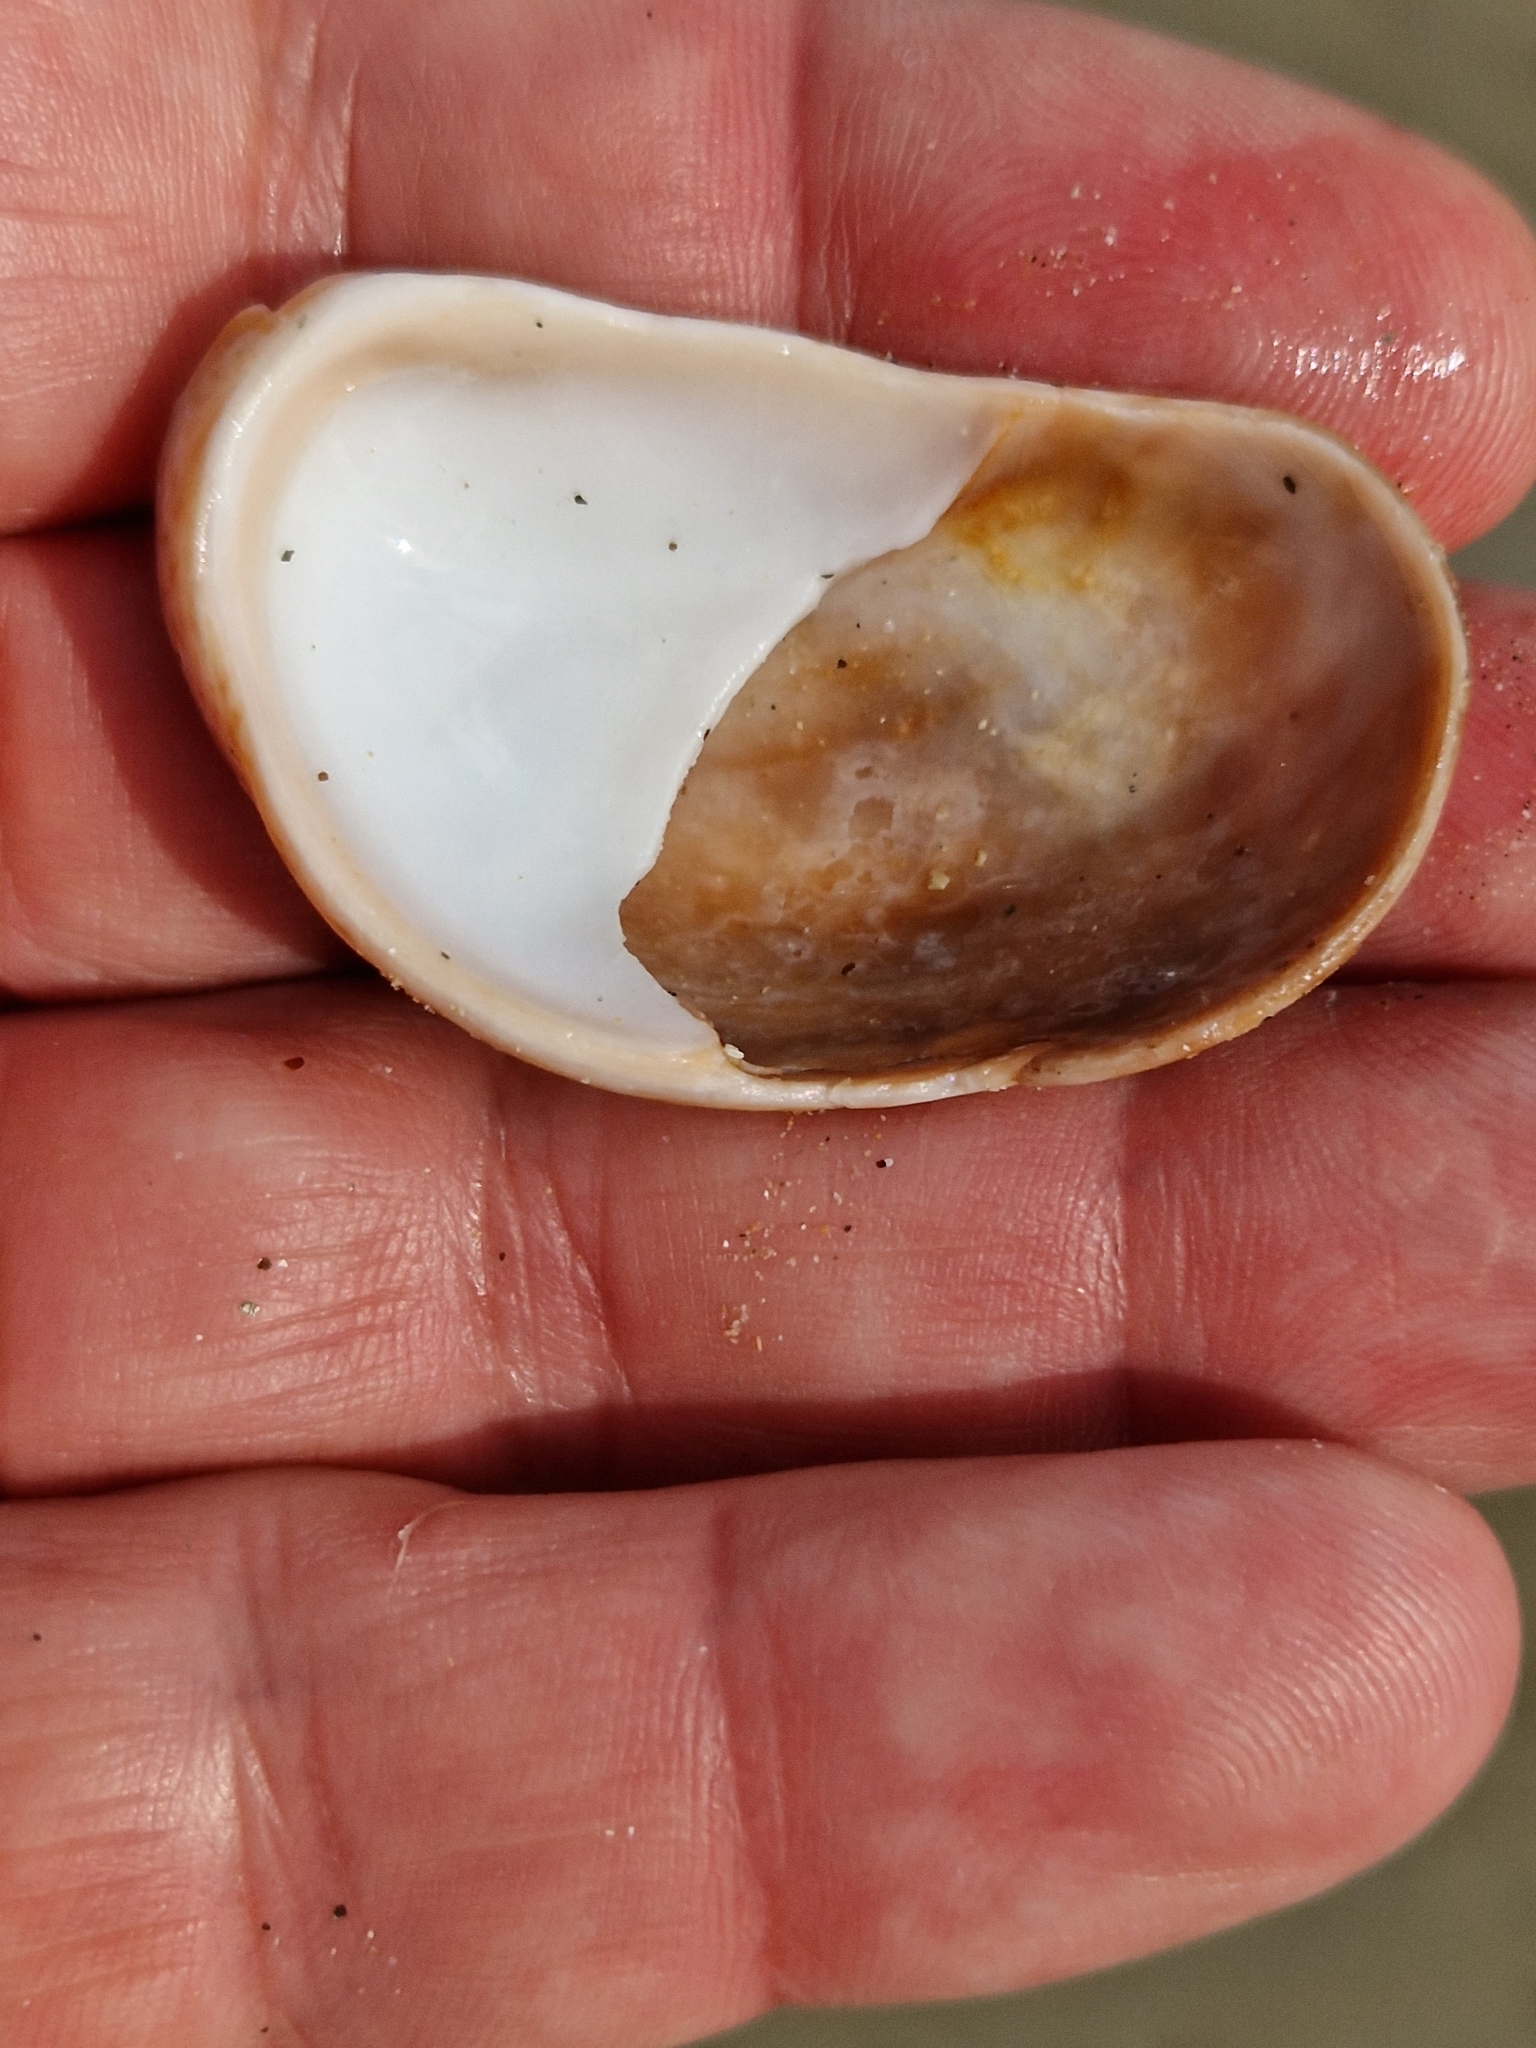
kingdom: Animalia
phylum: Mollusca
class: Gastropoda
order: Littorinimorpha
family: Calyptraeidae
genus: Crepidula
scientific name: Crepidula fornicata
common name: Slipper limpet
